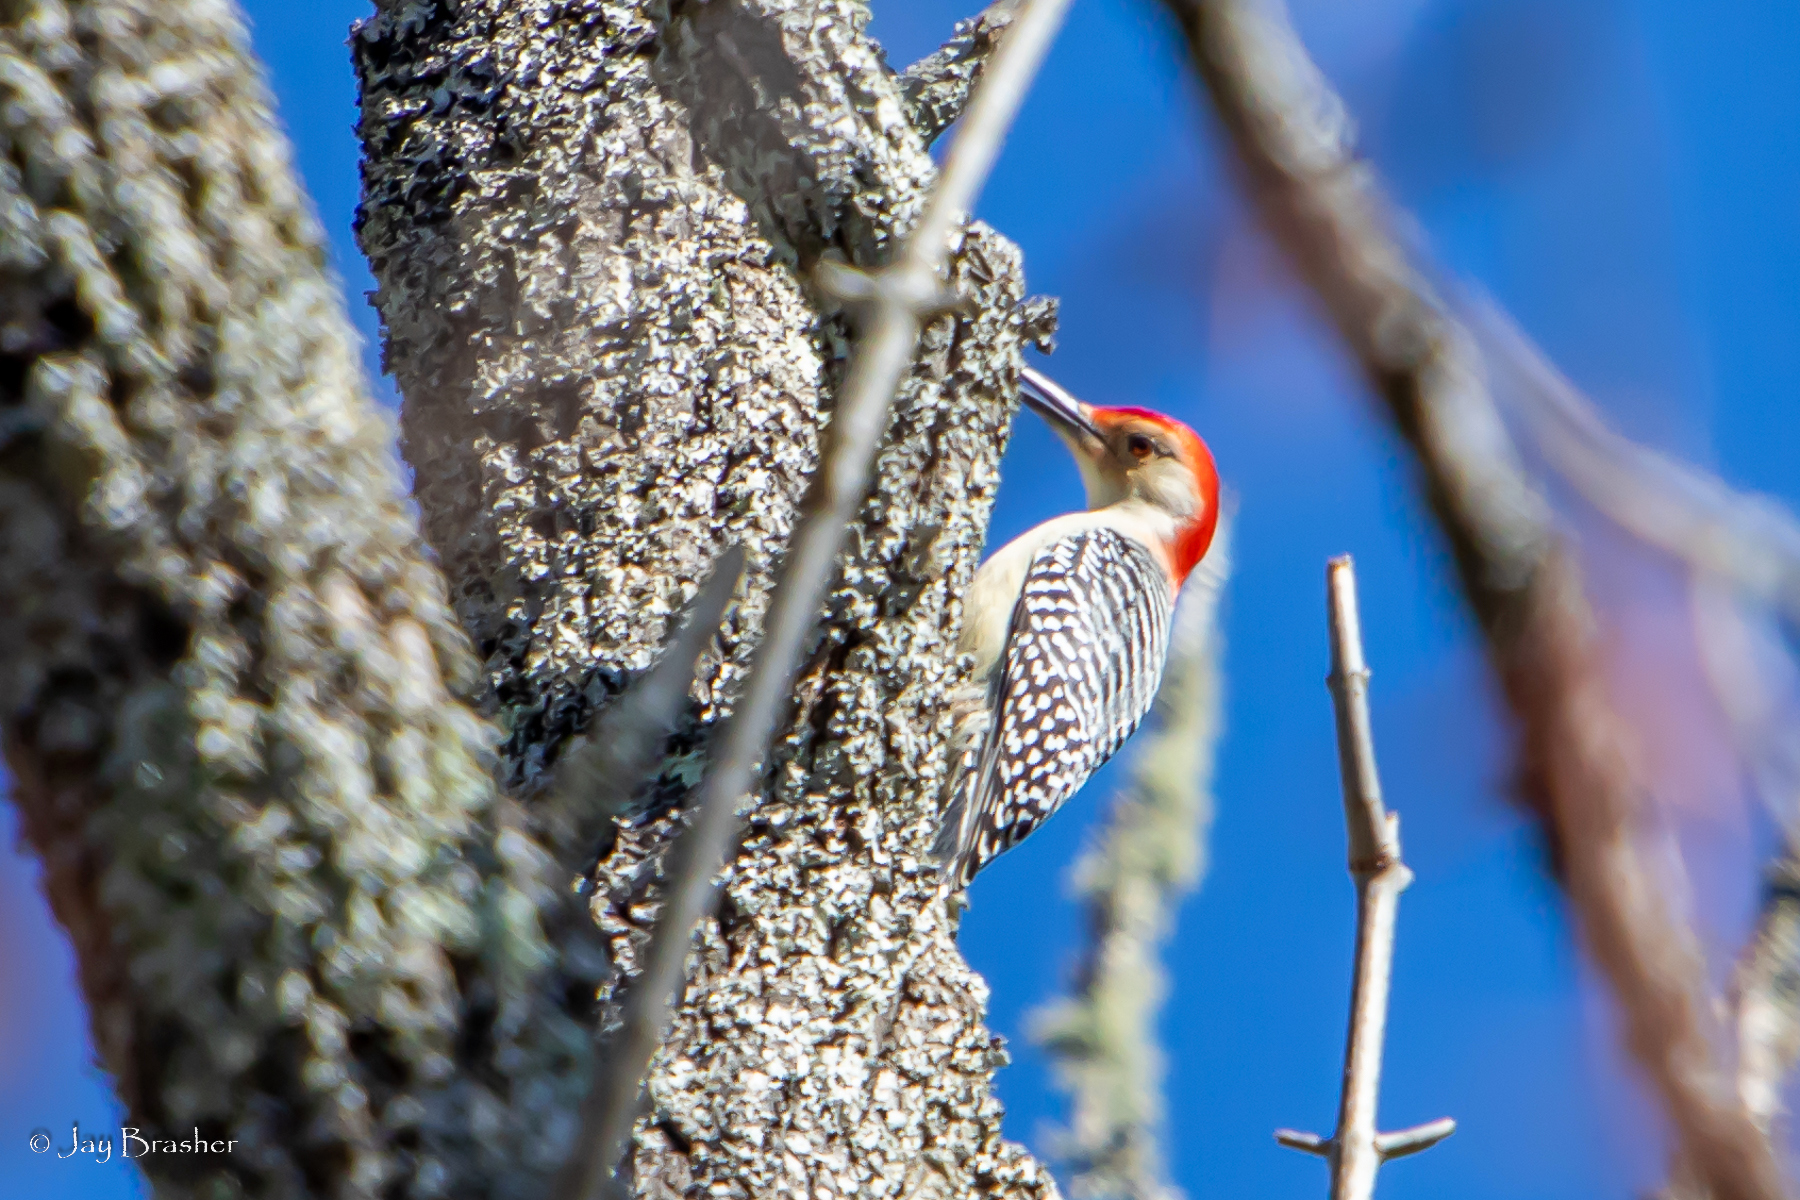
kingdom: Animalia
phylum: Chordata
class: Aves
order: Piciformes
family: Picidae
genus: Melanerpes
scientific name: Melanerpes carolinus
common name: Red-bellied woodpecker
